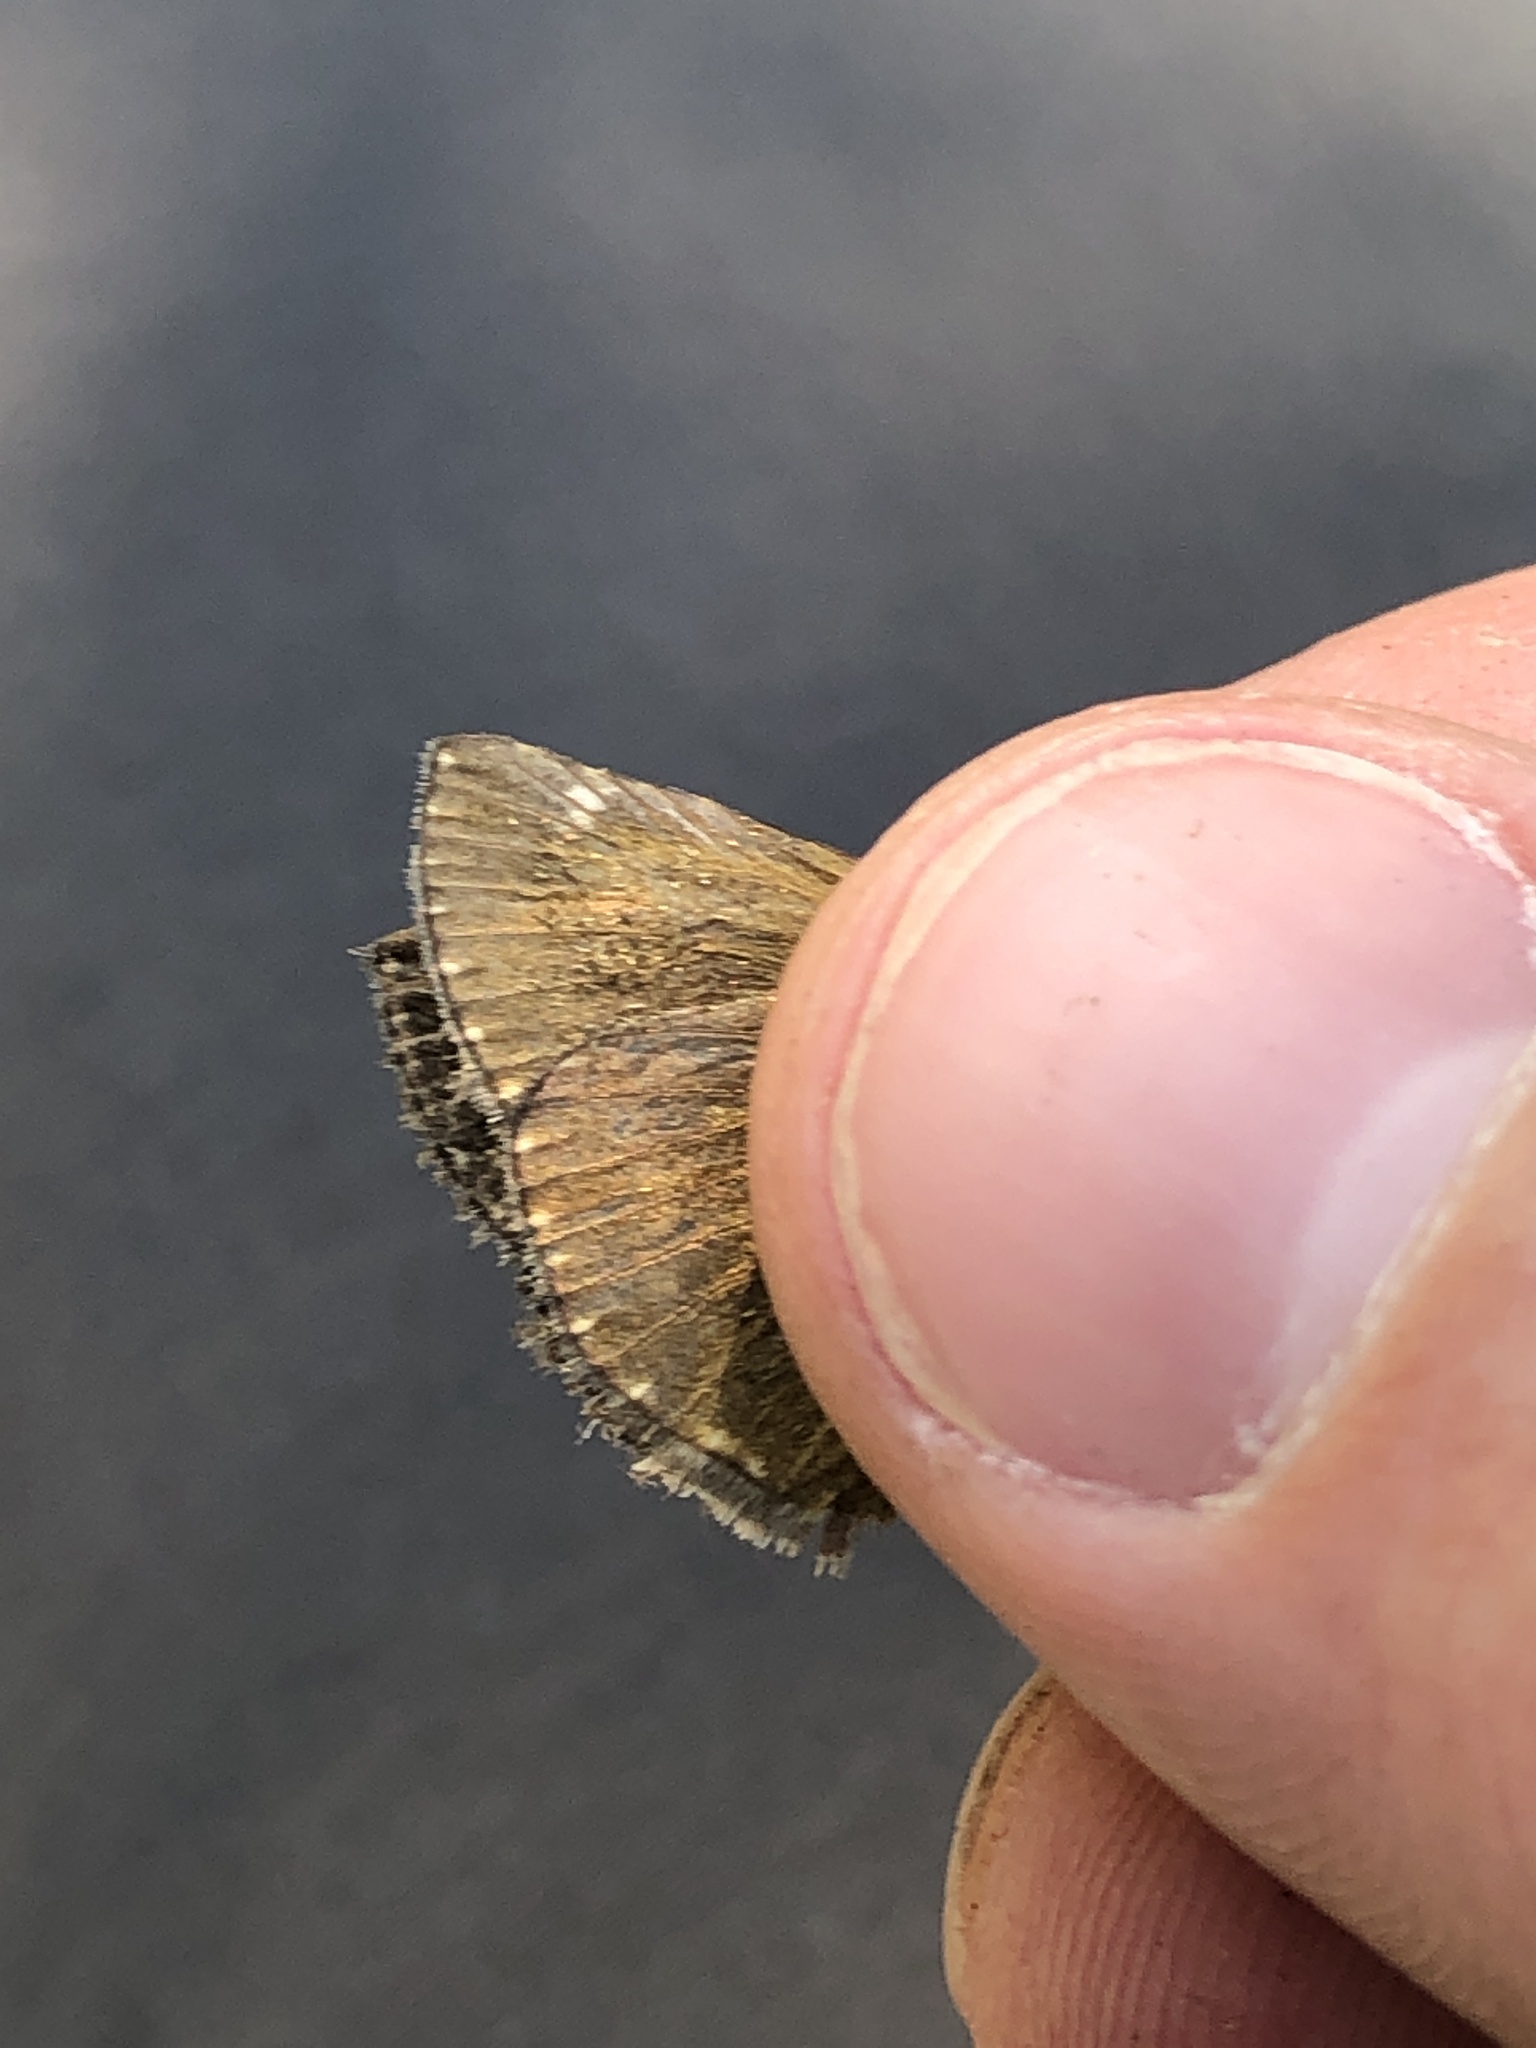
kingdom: Animalia
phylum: Arthropoda
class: Insecta
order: Lepidoptera
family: Hesperiidae
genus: Erynnis
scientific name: Erynnis tages
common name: Dingy skipper
